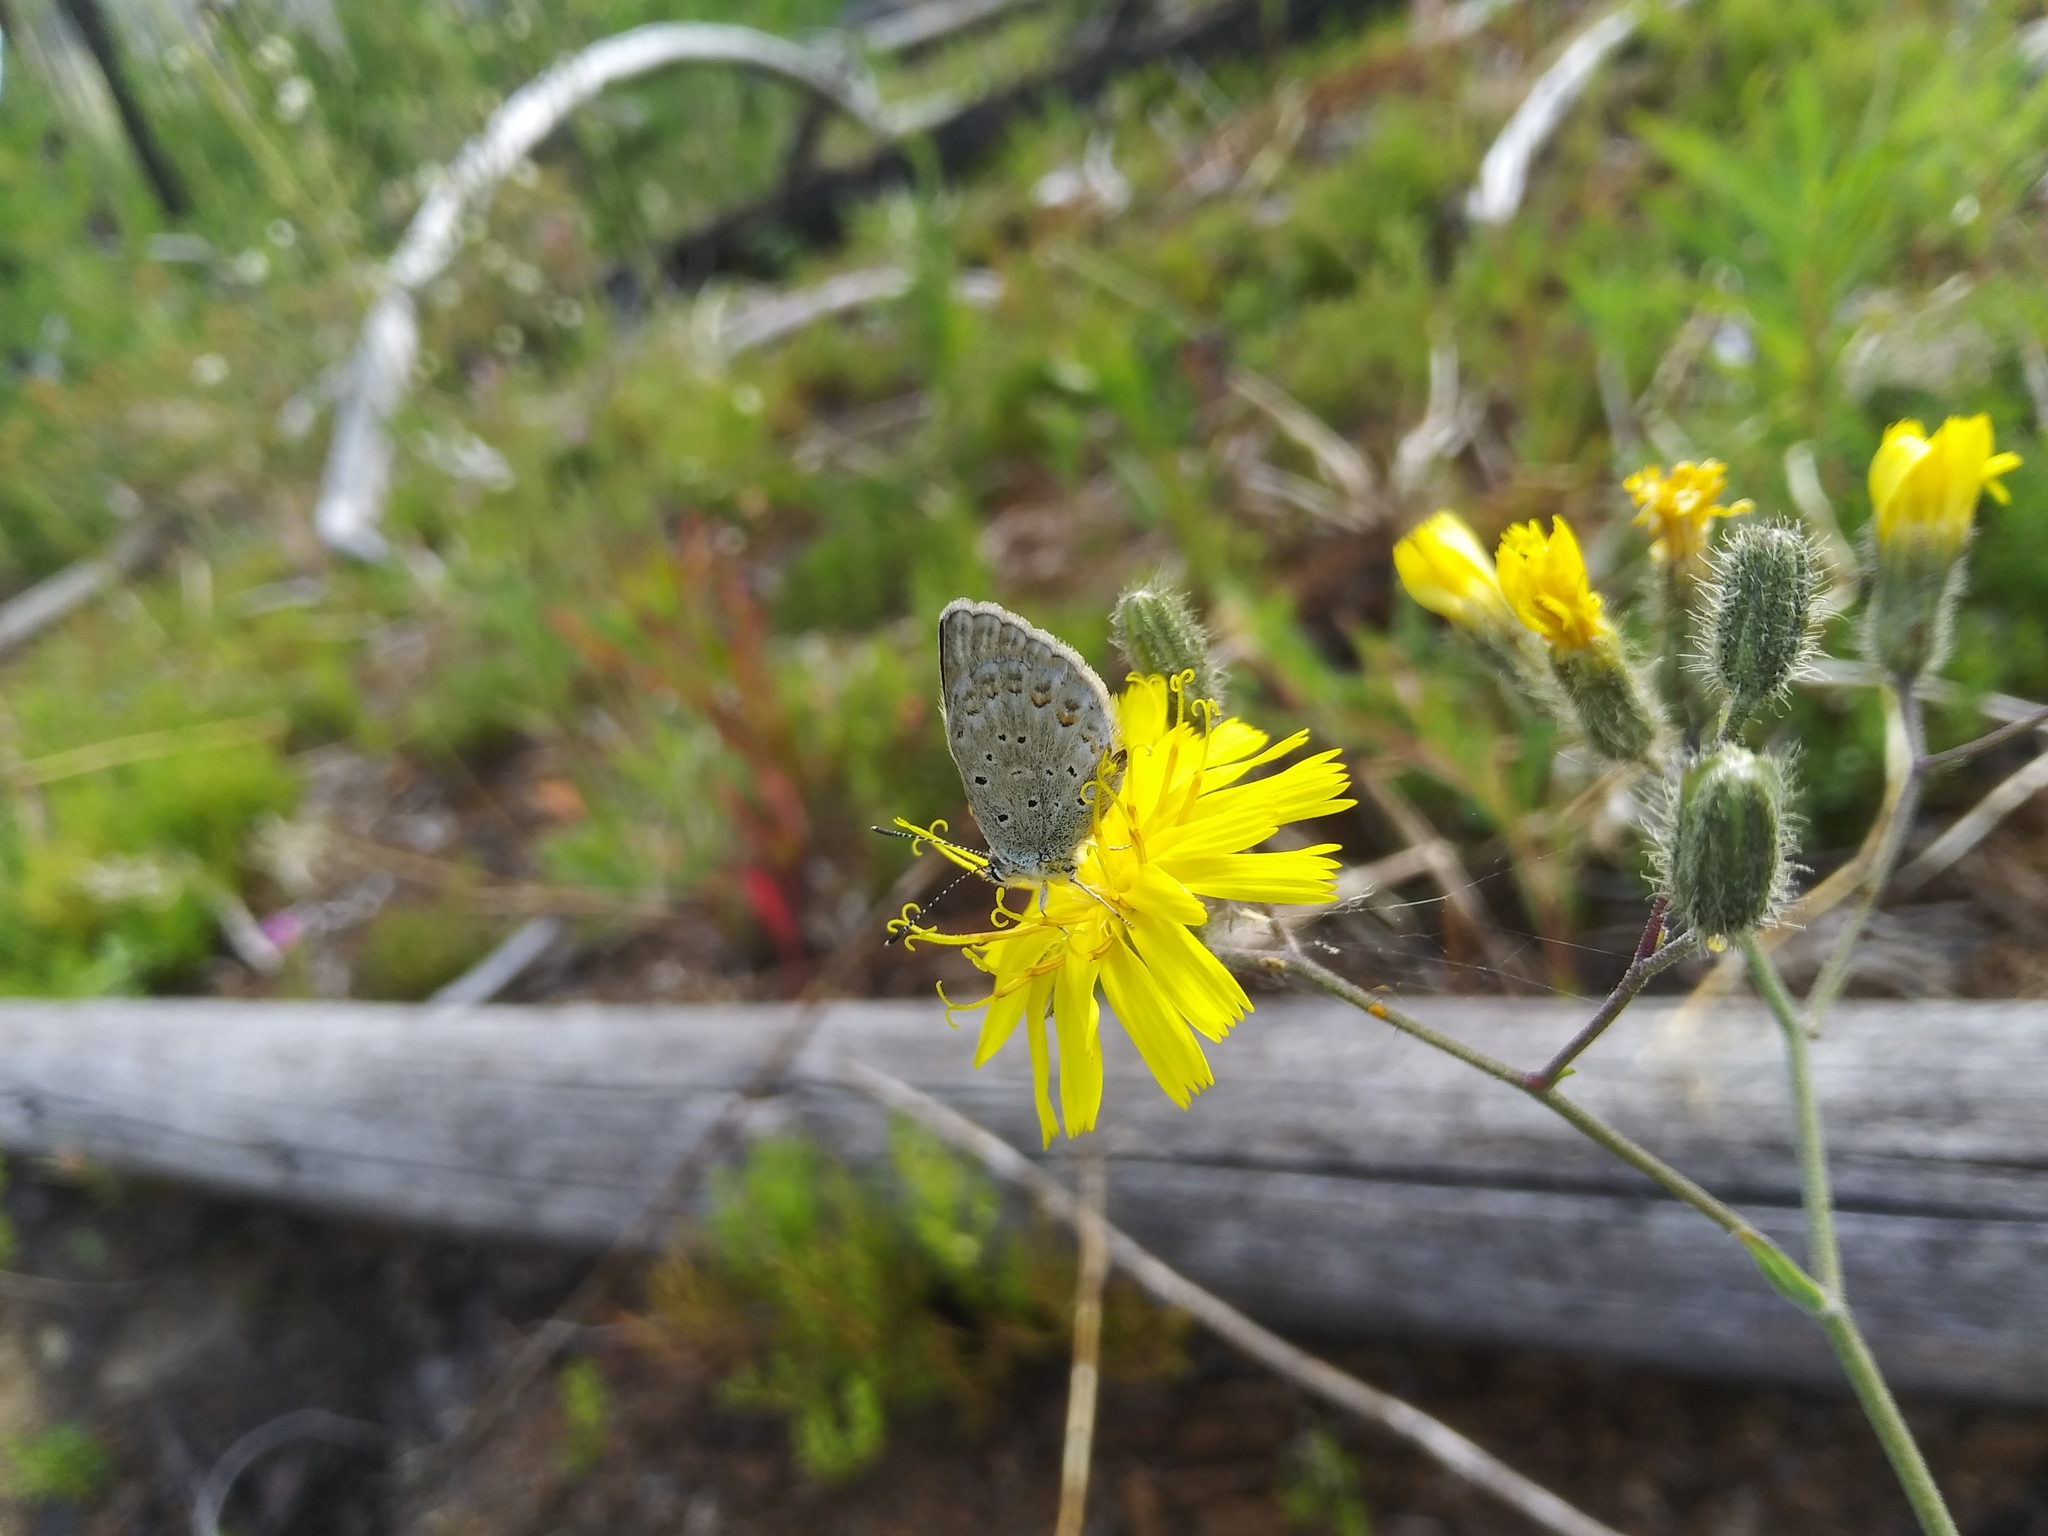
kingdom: Animalia
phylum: Arthropoda
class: Insecta
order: Lepidoptera
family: Lycaenidae
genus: Lycaeides
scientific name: Lycaeides anna
